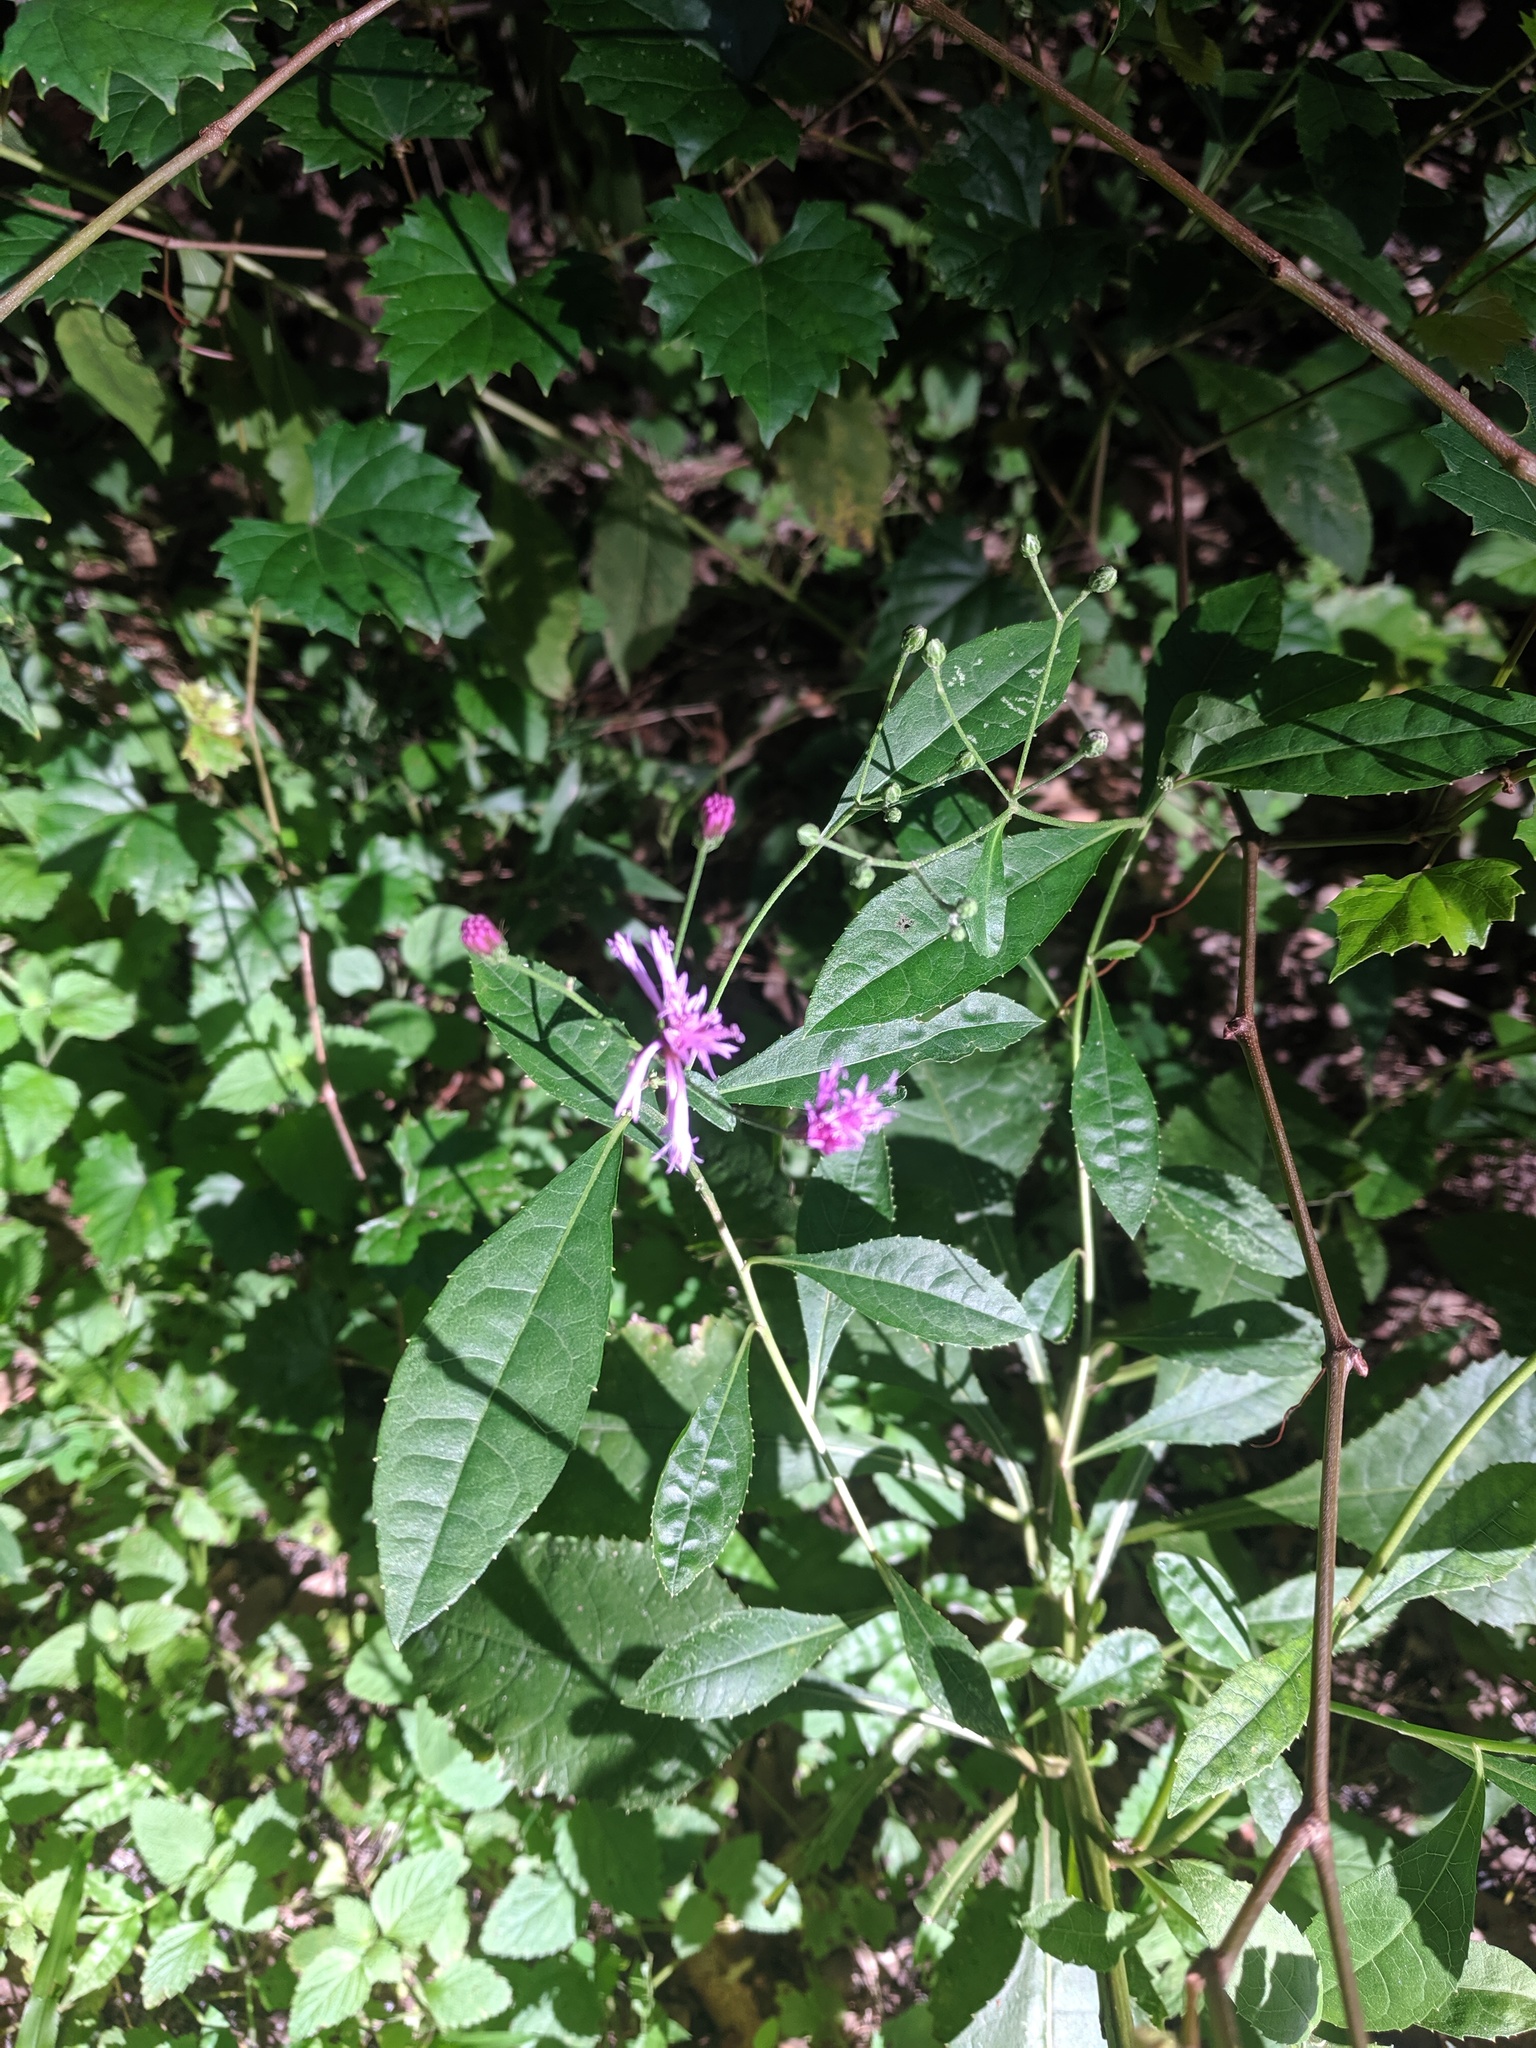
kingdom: Plantae
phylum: Tracheophyta
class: Magnoliopsida
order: Asterales
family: Asteraceae
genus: Vernonia
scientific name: Vernonia gigantea
